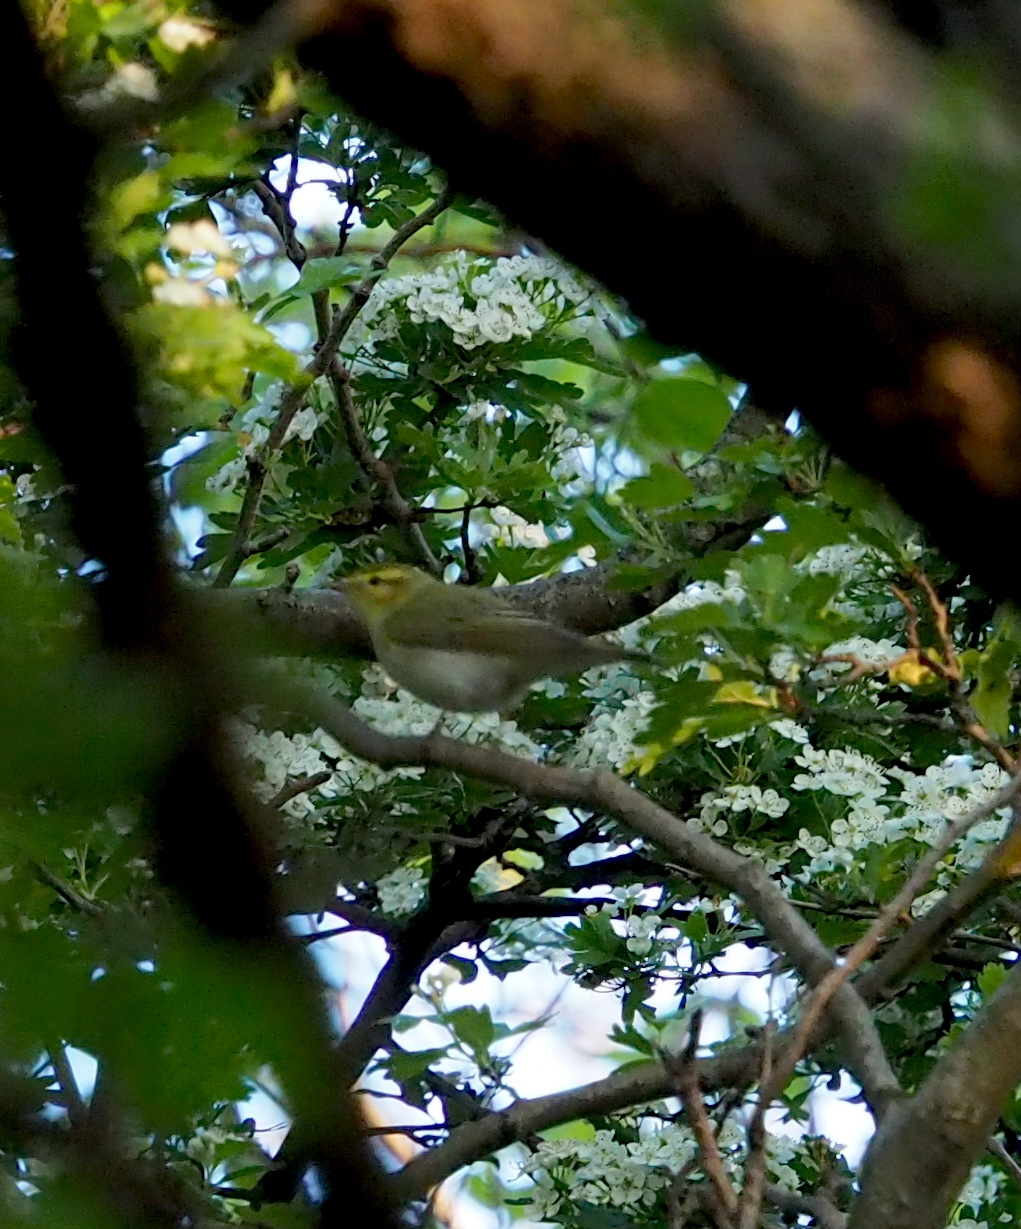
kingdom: Animalia
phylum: Chordata
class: Aves
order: Passeriformes
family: Phylloscopidae
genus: Phylloscopus
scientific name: Phylloscopus sibillatrix
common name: Wood warbler
